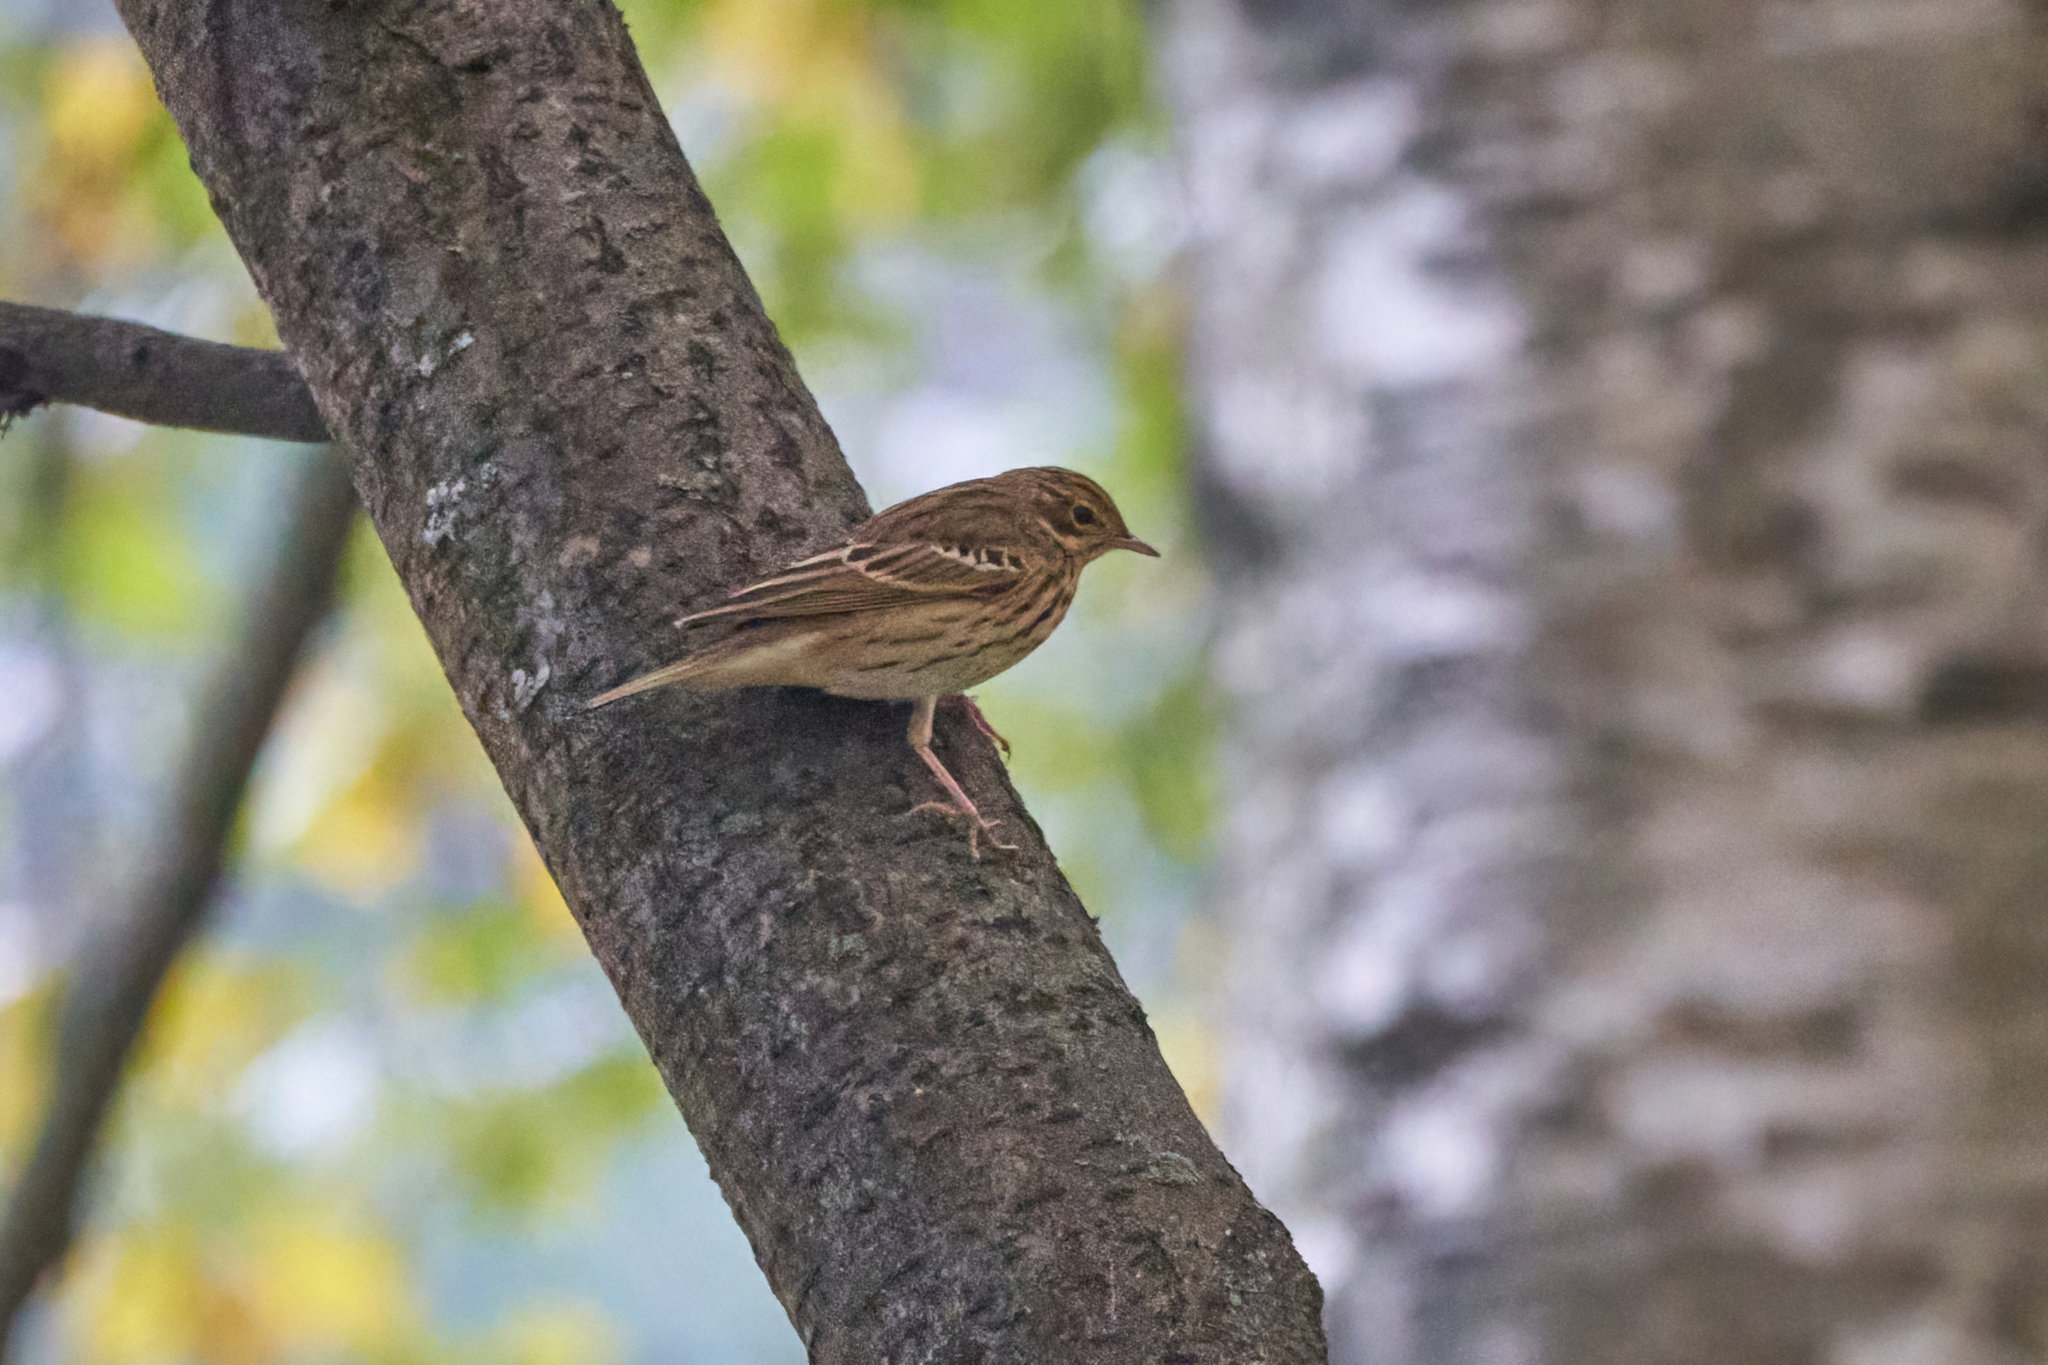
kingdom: Animalia
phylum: Chordata
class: Aves
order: Passeriformes
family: Motacillidae
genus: Anthus
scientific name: Anthus trivialis
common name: Tree pipit
